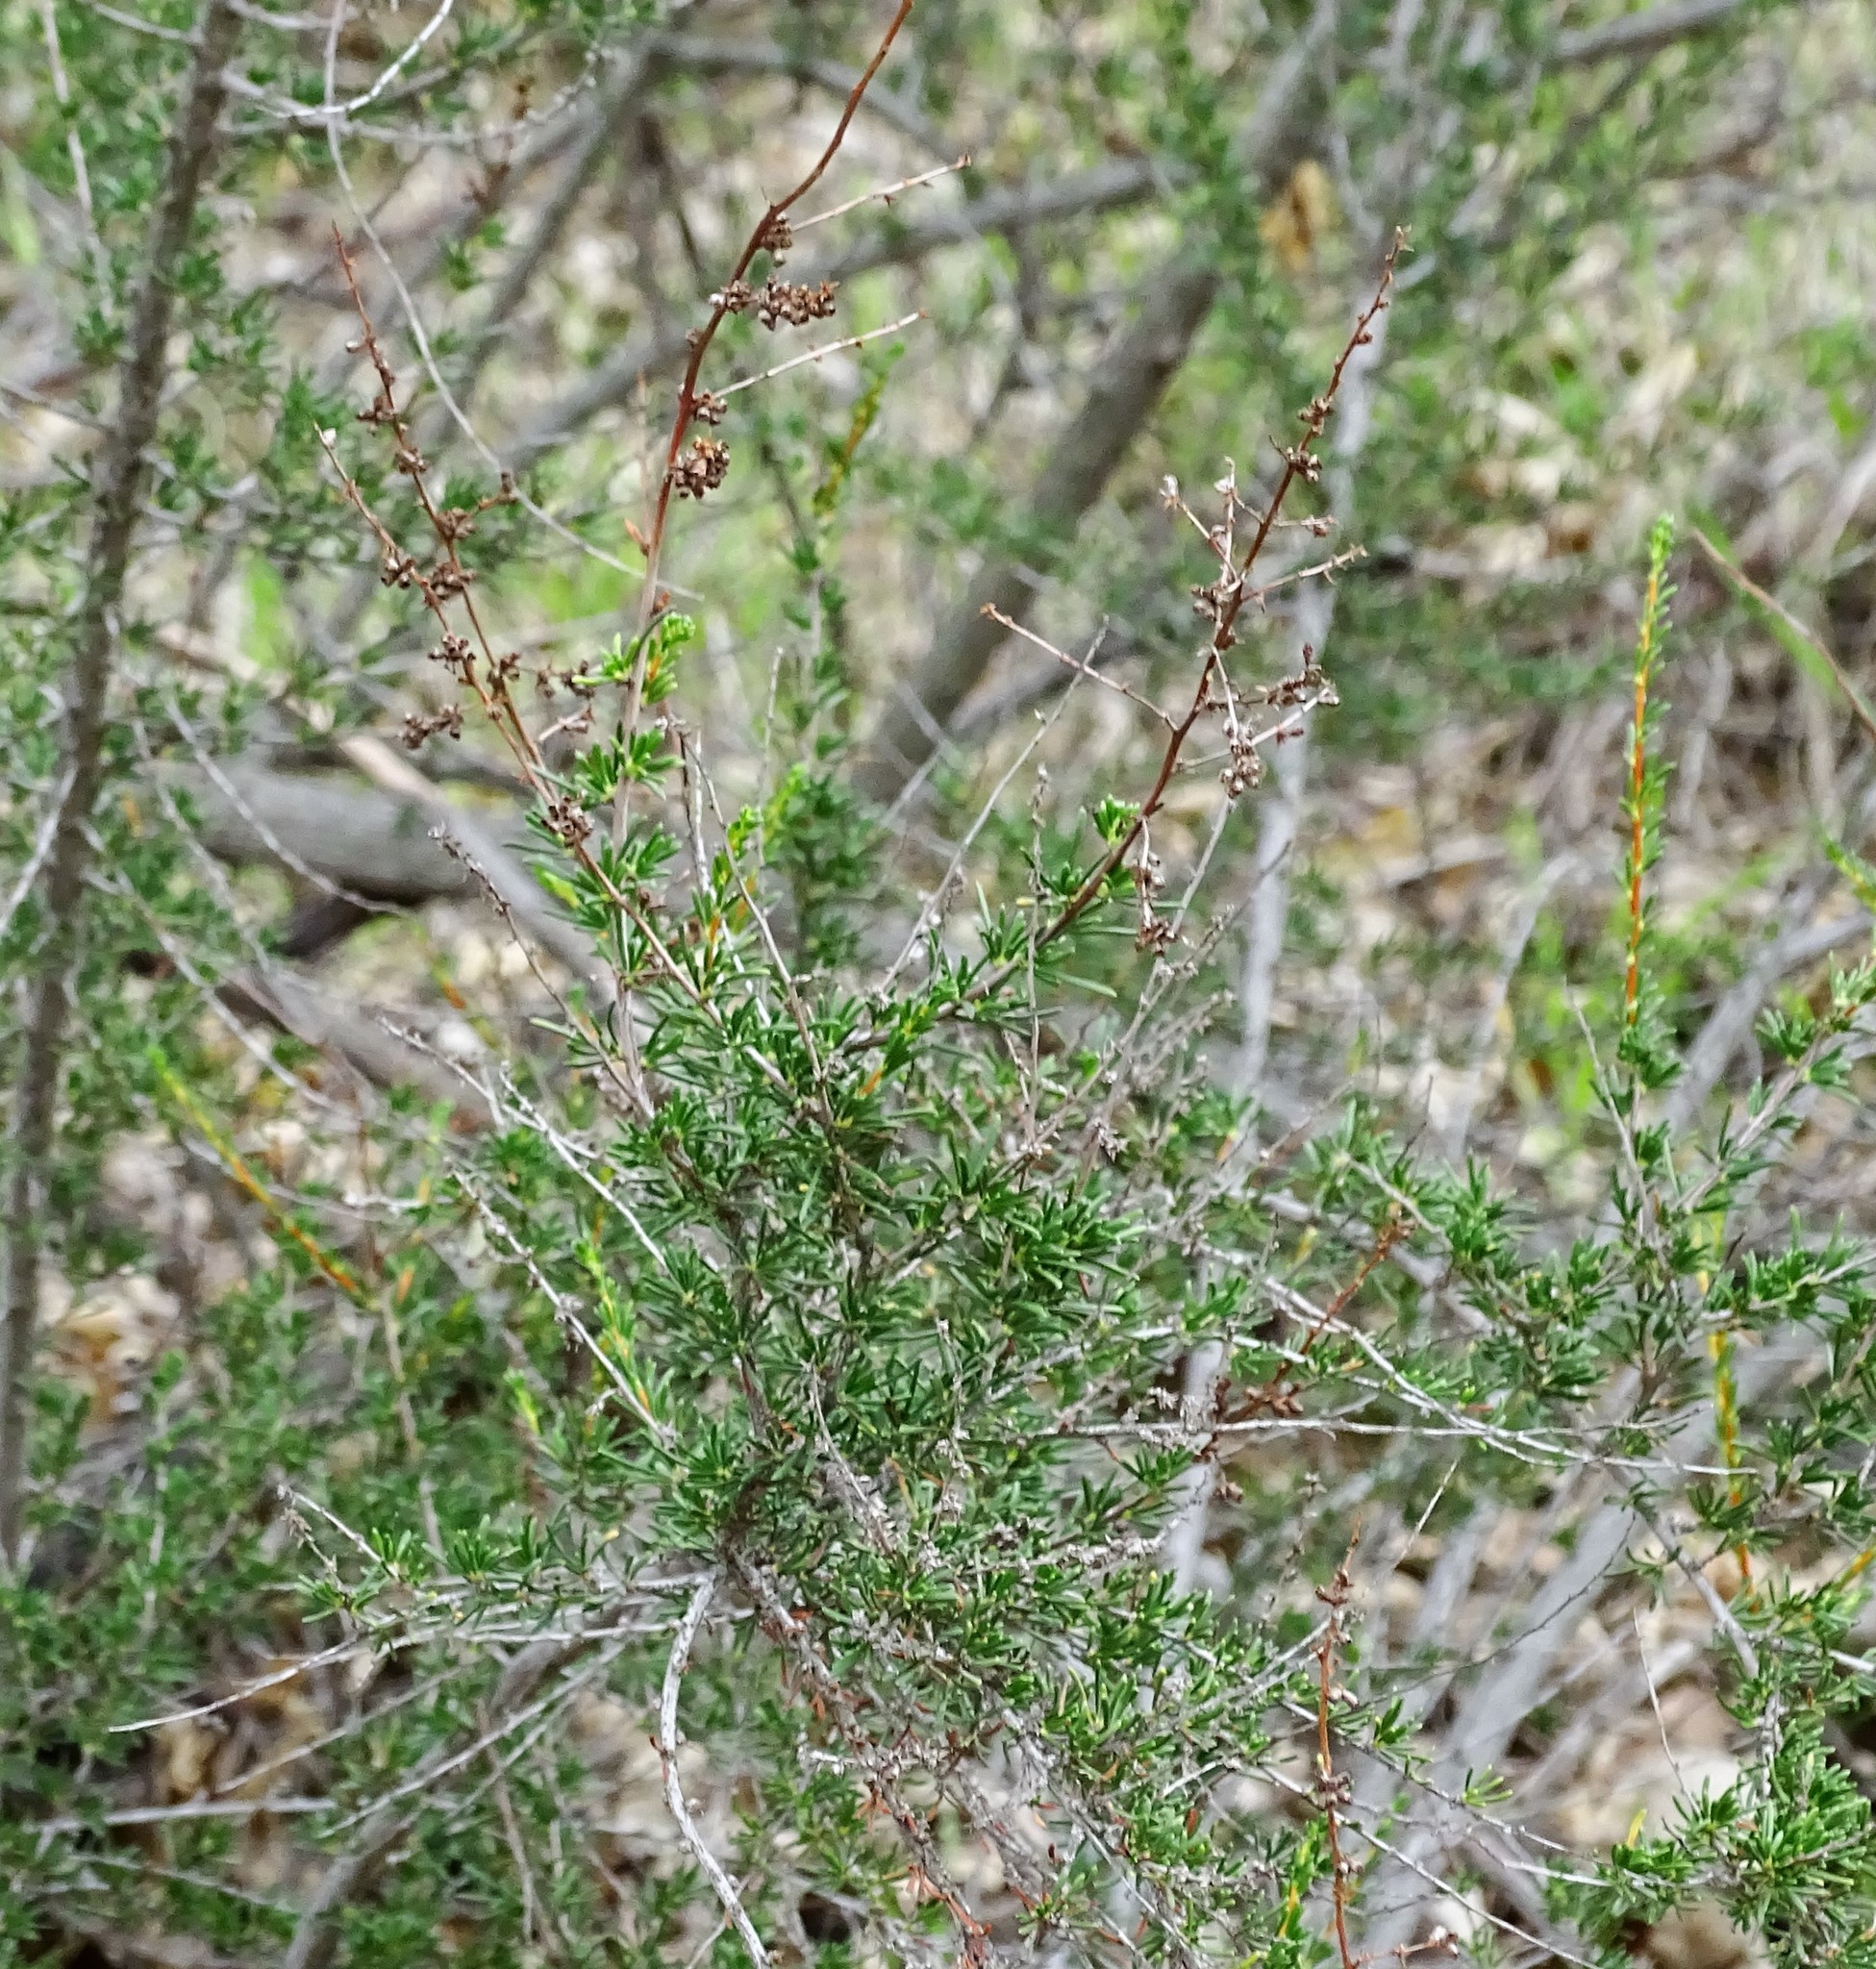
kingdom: Plantae
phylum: Tracheophyta
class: Magnoliopsida
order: Rosales
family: Rosaceae
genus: Adenostoma
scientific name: Adenostoma fasciculatum
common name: Chamise
